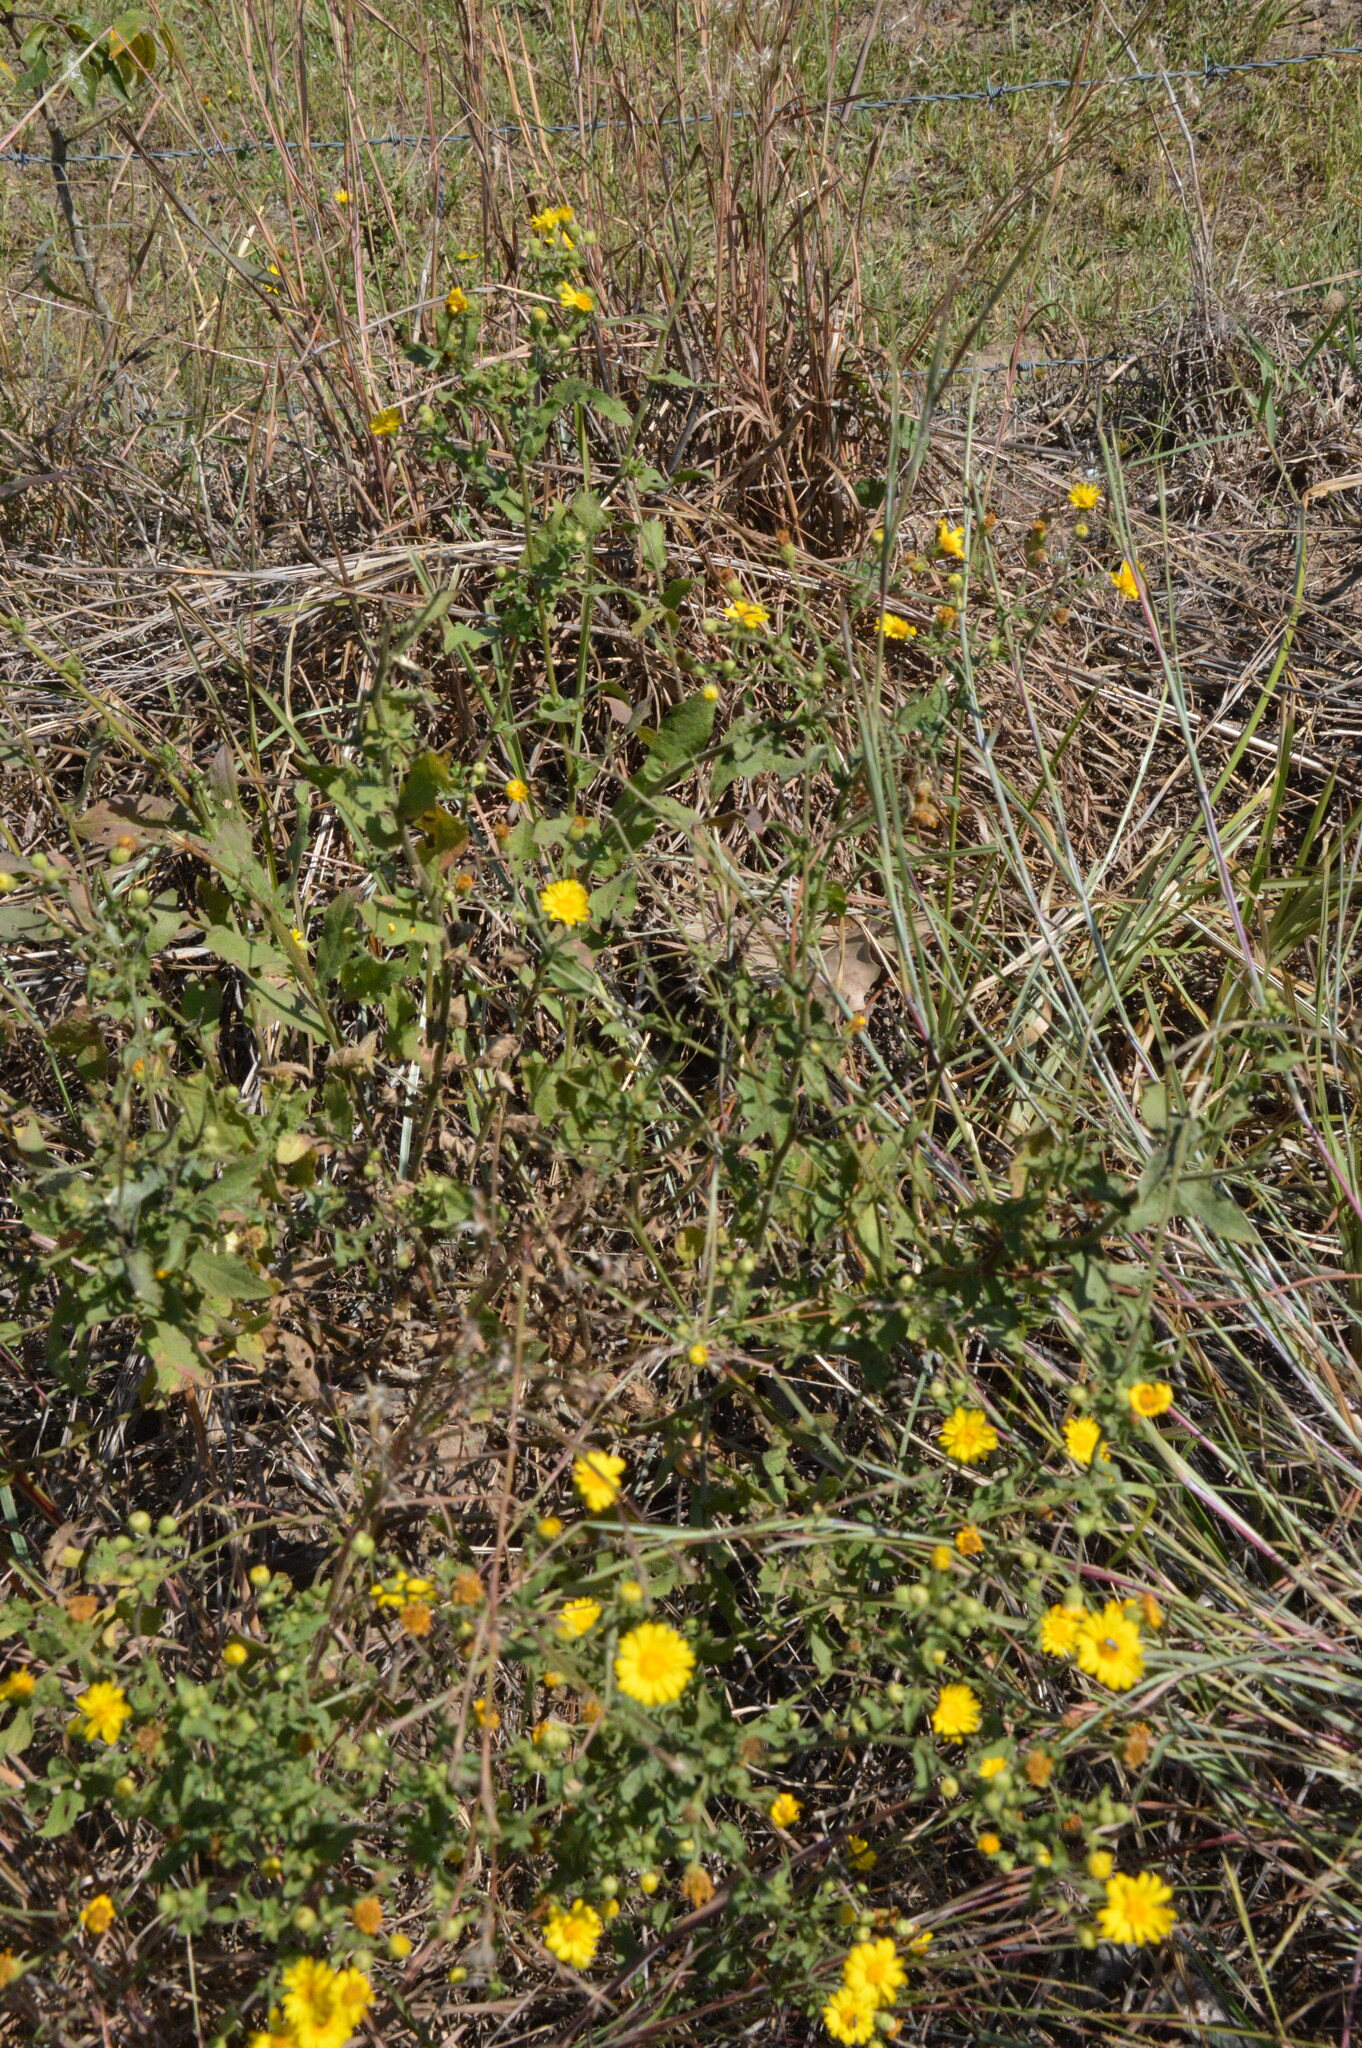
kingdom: Plantae
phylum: Tracheophyta
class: Magnoliopsida
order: Asterales
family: Asteraceae
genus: Heterotheca
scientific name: Heterotheca subaxillaris
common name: Camphorweed
